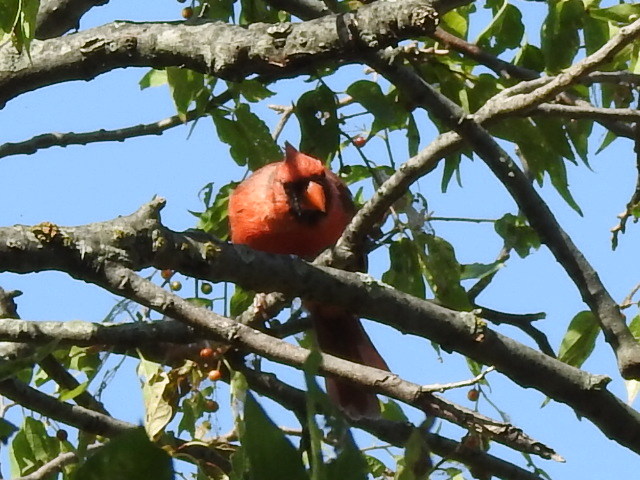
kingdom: Animalia
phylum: Chordata
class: Aves
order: Passeriformes
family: Cardinalidae
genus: Cardinalis
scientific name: Cardinalis cardinalis
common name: Northern cardinal
